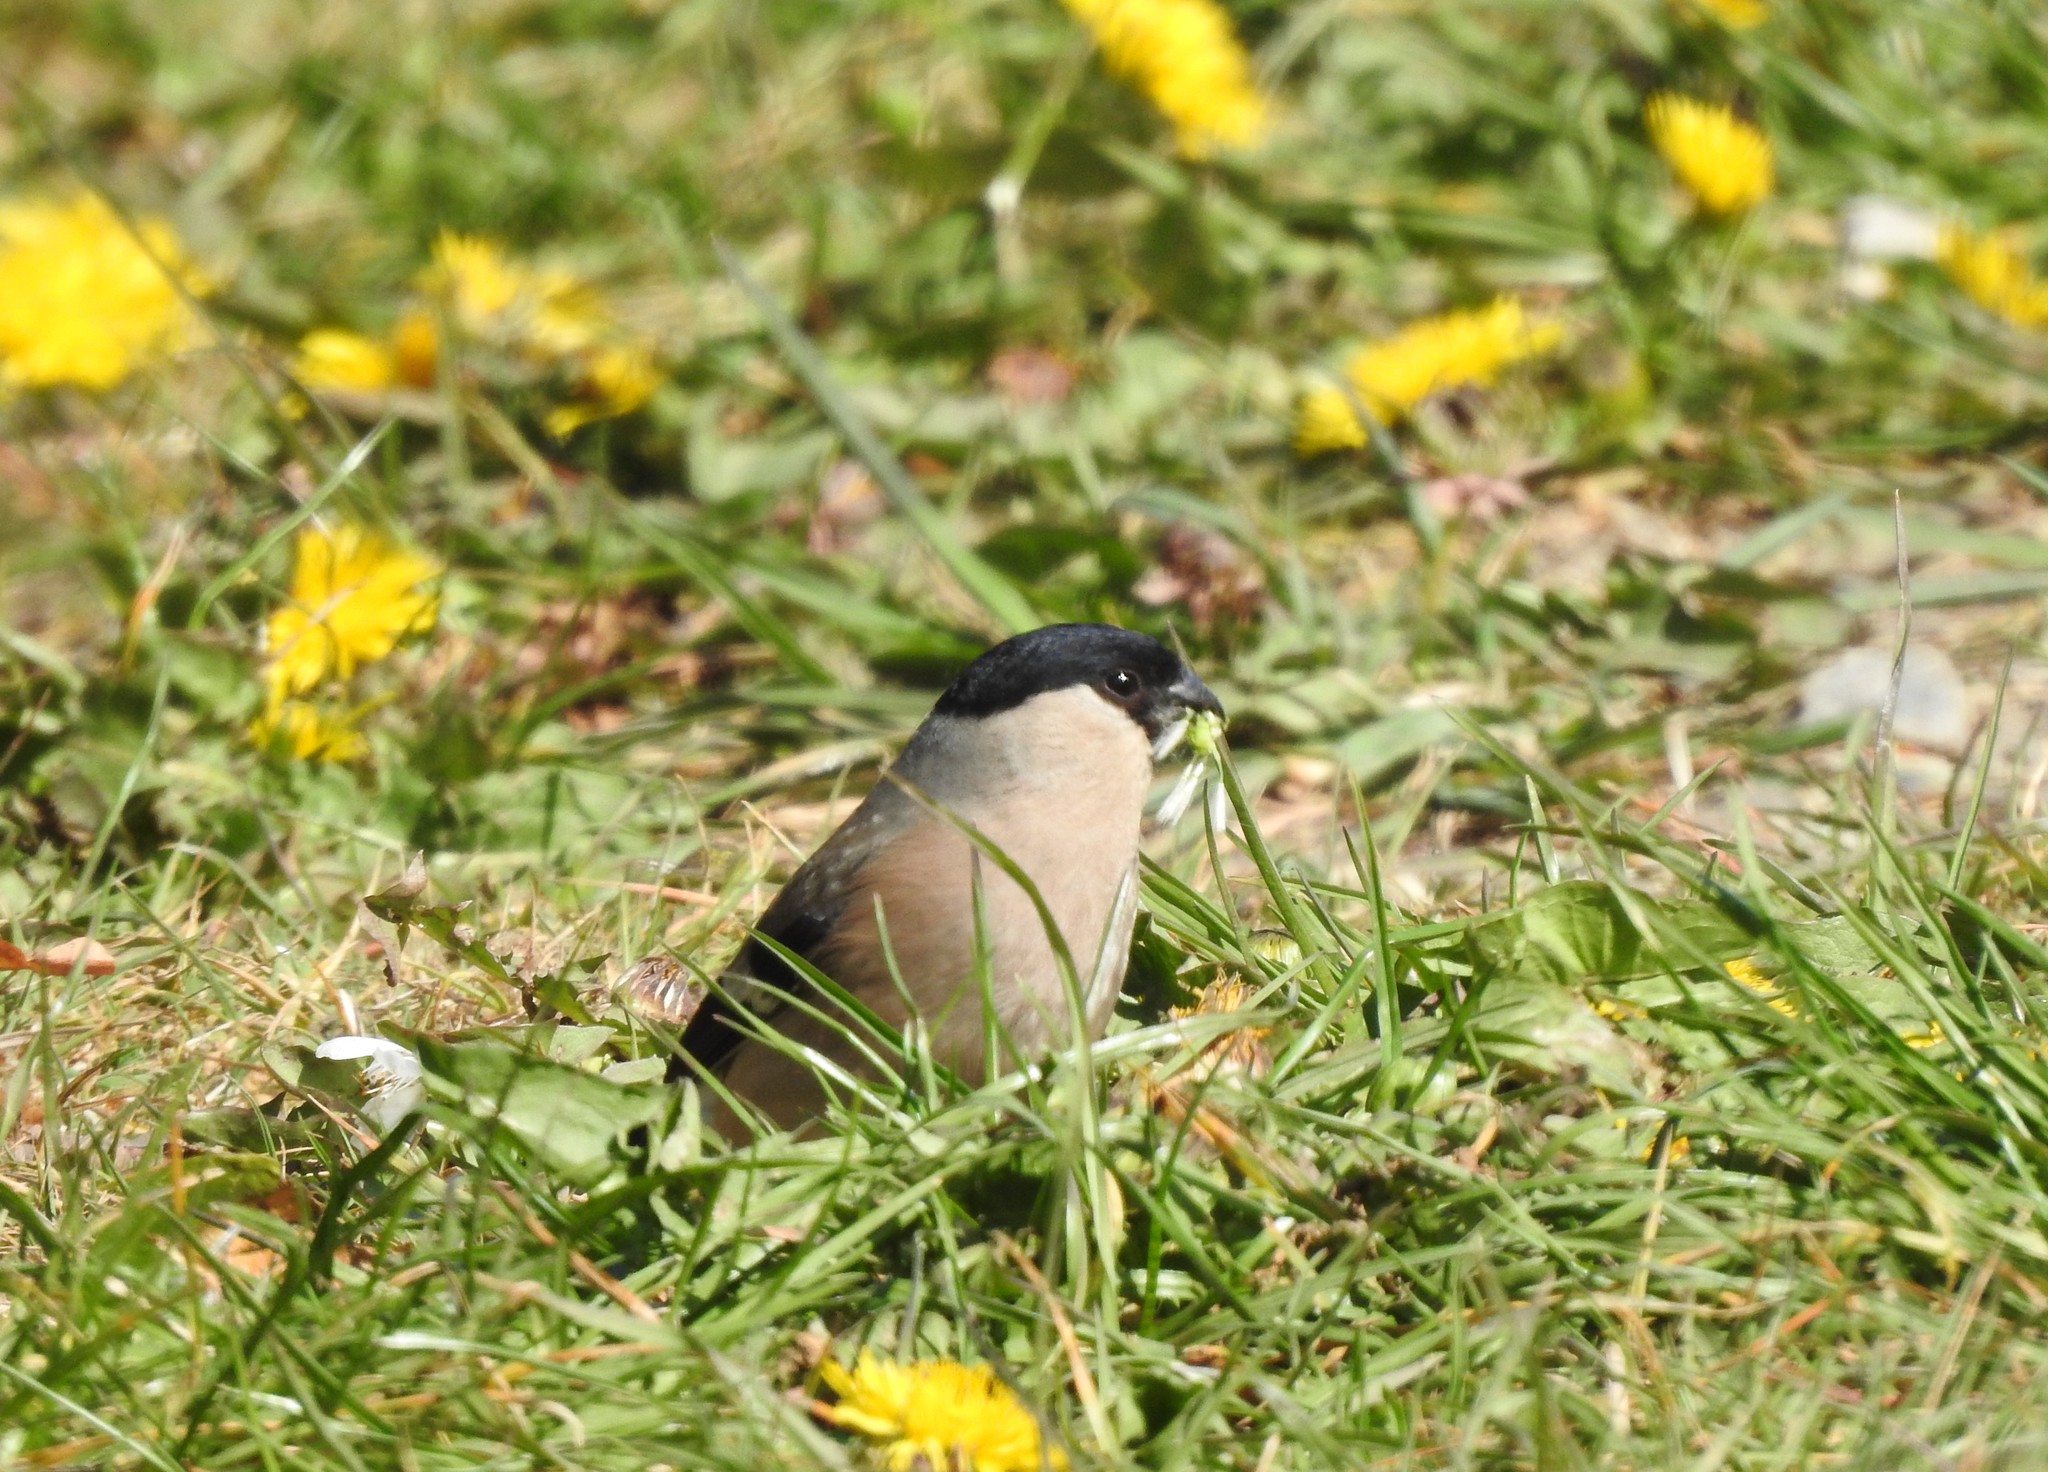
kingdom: Animalia
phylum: Chordata
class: Aves
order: Passeriformes
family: Fringillidae
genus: Pyrrhula
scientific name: Pyrrhula pyrrhula
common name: Eurasian bullfinch
